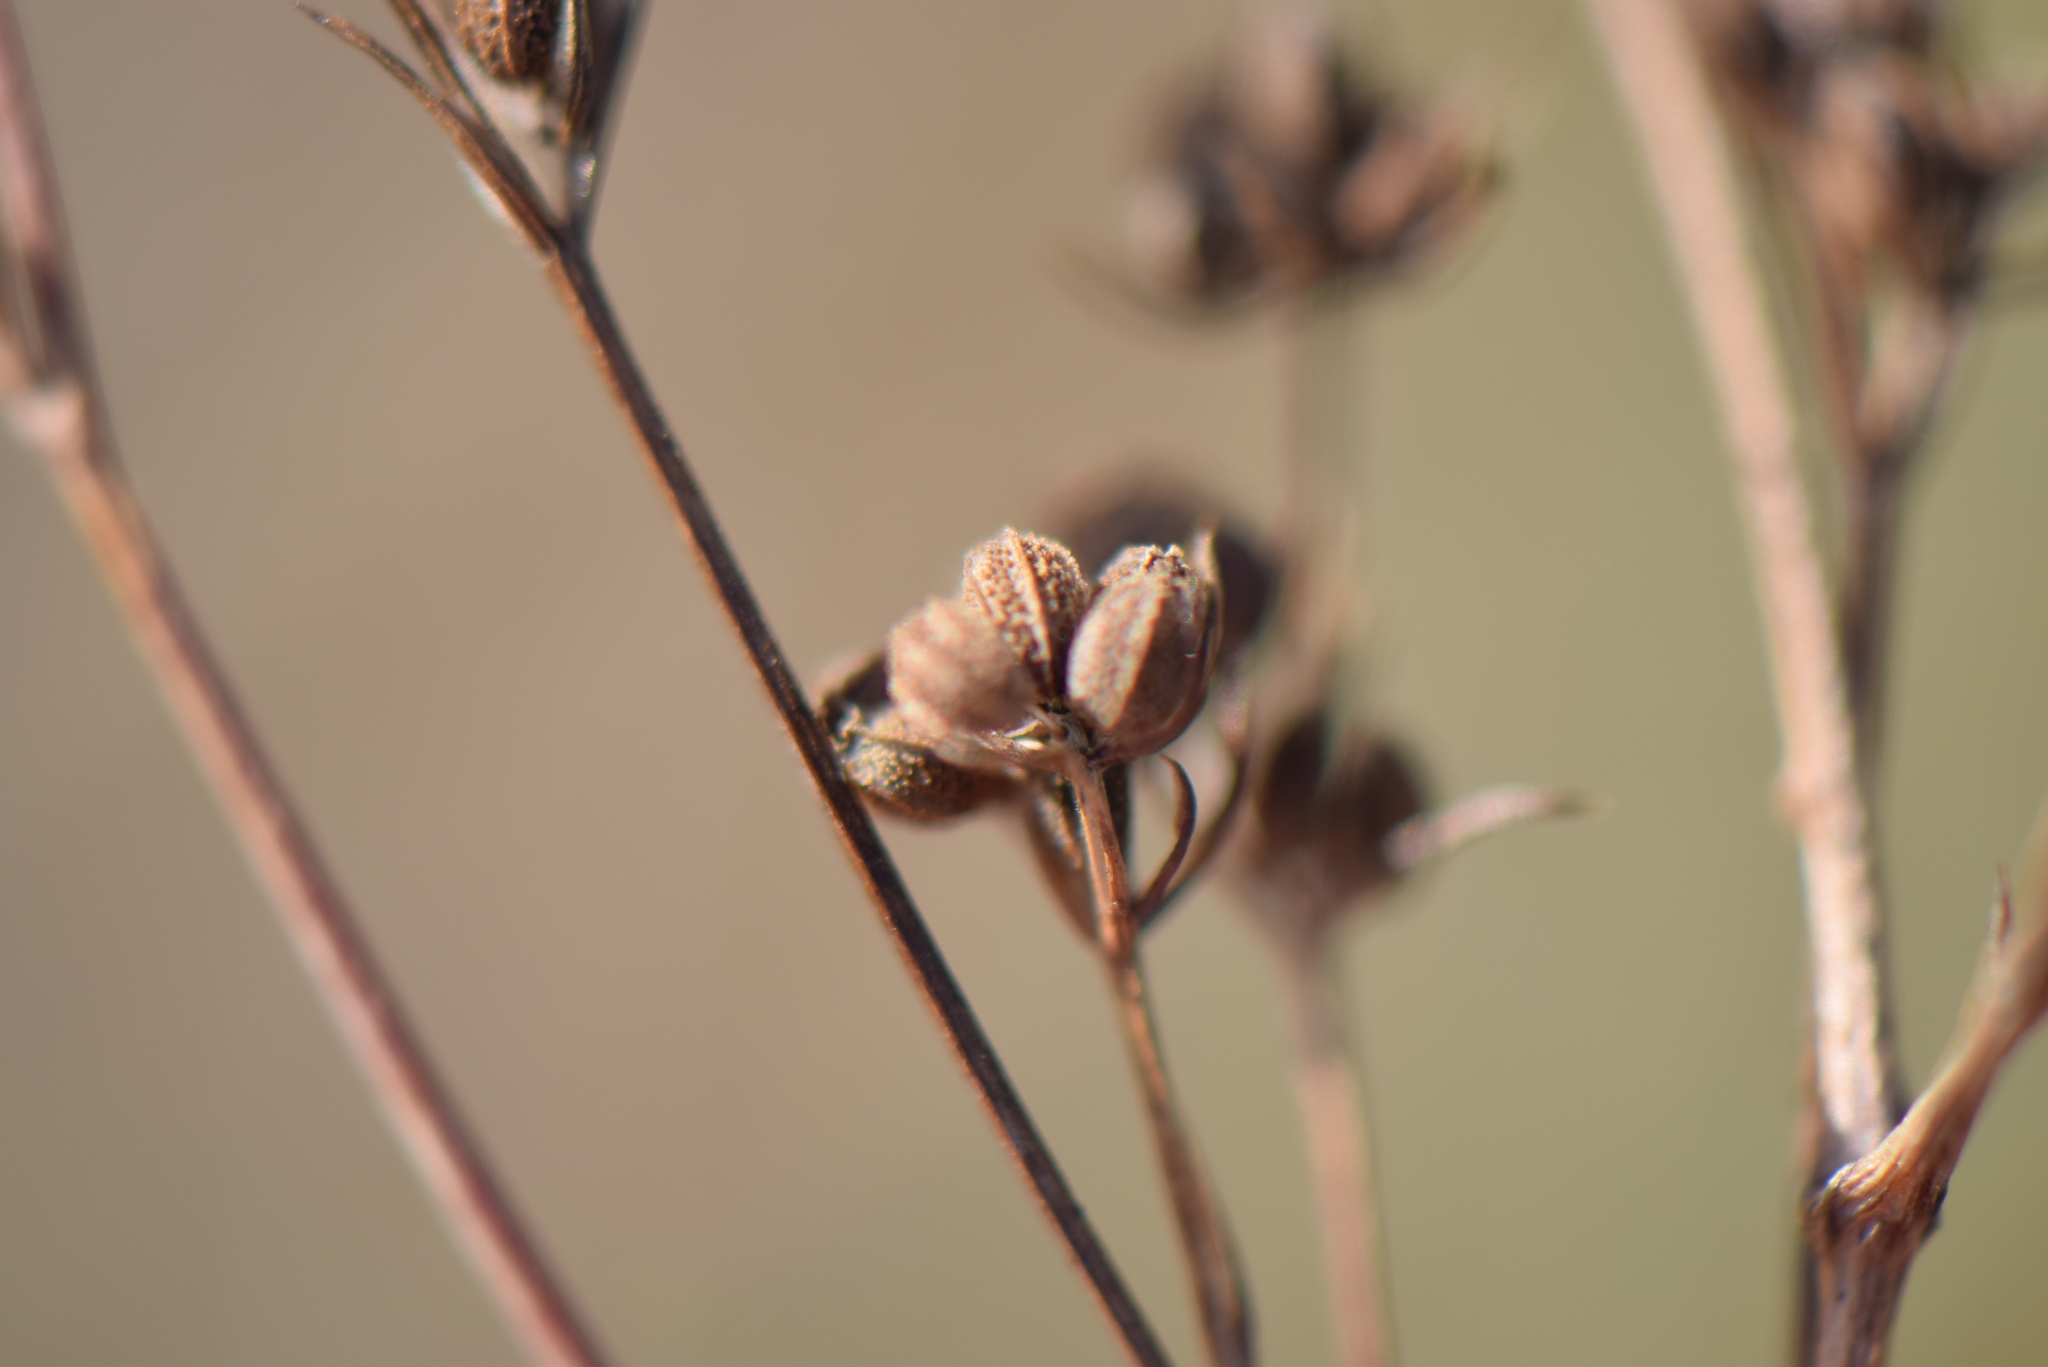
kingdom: Plantae
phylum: Tracheophyta
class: Magnoliopsida
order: Apiales
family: Apiaceae
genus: Bupleurum
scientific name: Bupleurum tenuissimum
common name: Slender hare's-ear
